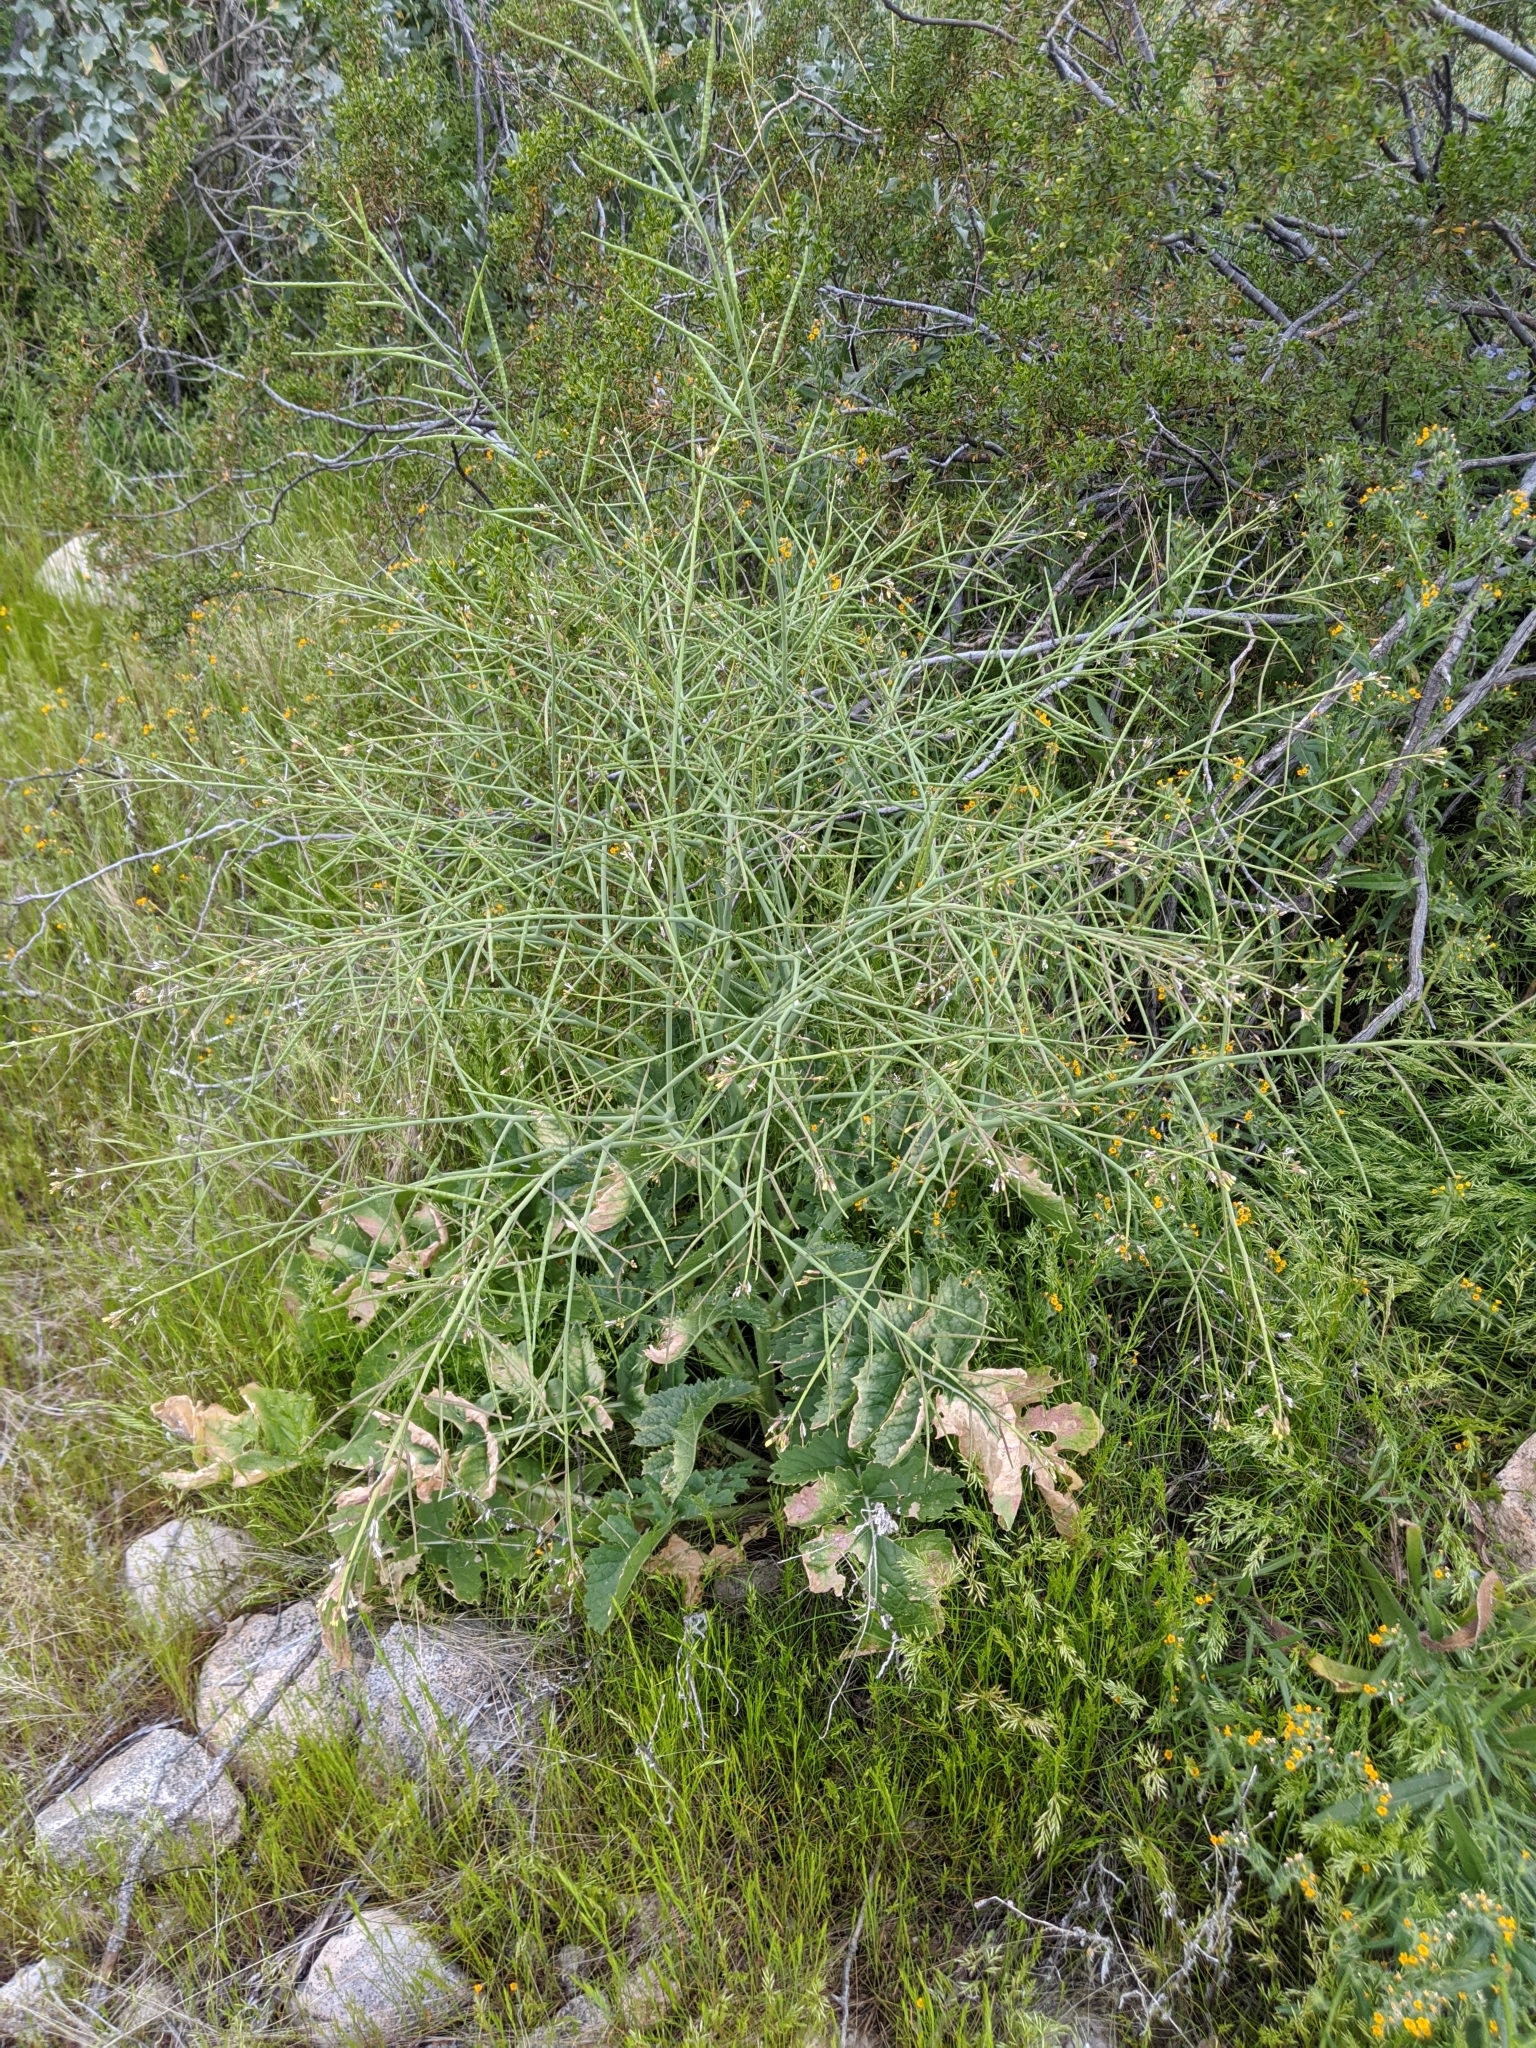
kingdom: Plantae
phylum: Tracheophyta
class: Magnoliopsida
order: Brassicales
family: Brassicaceae
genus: Brassica
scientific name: Brassica tournefortii
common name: Pale cabbage
